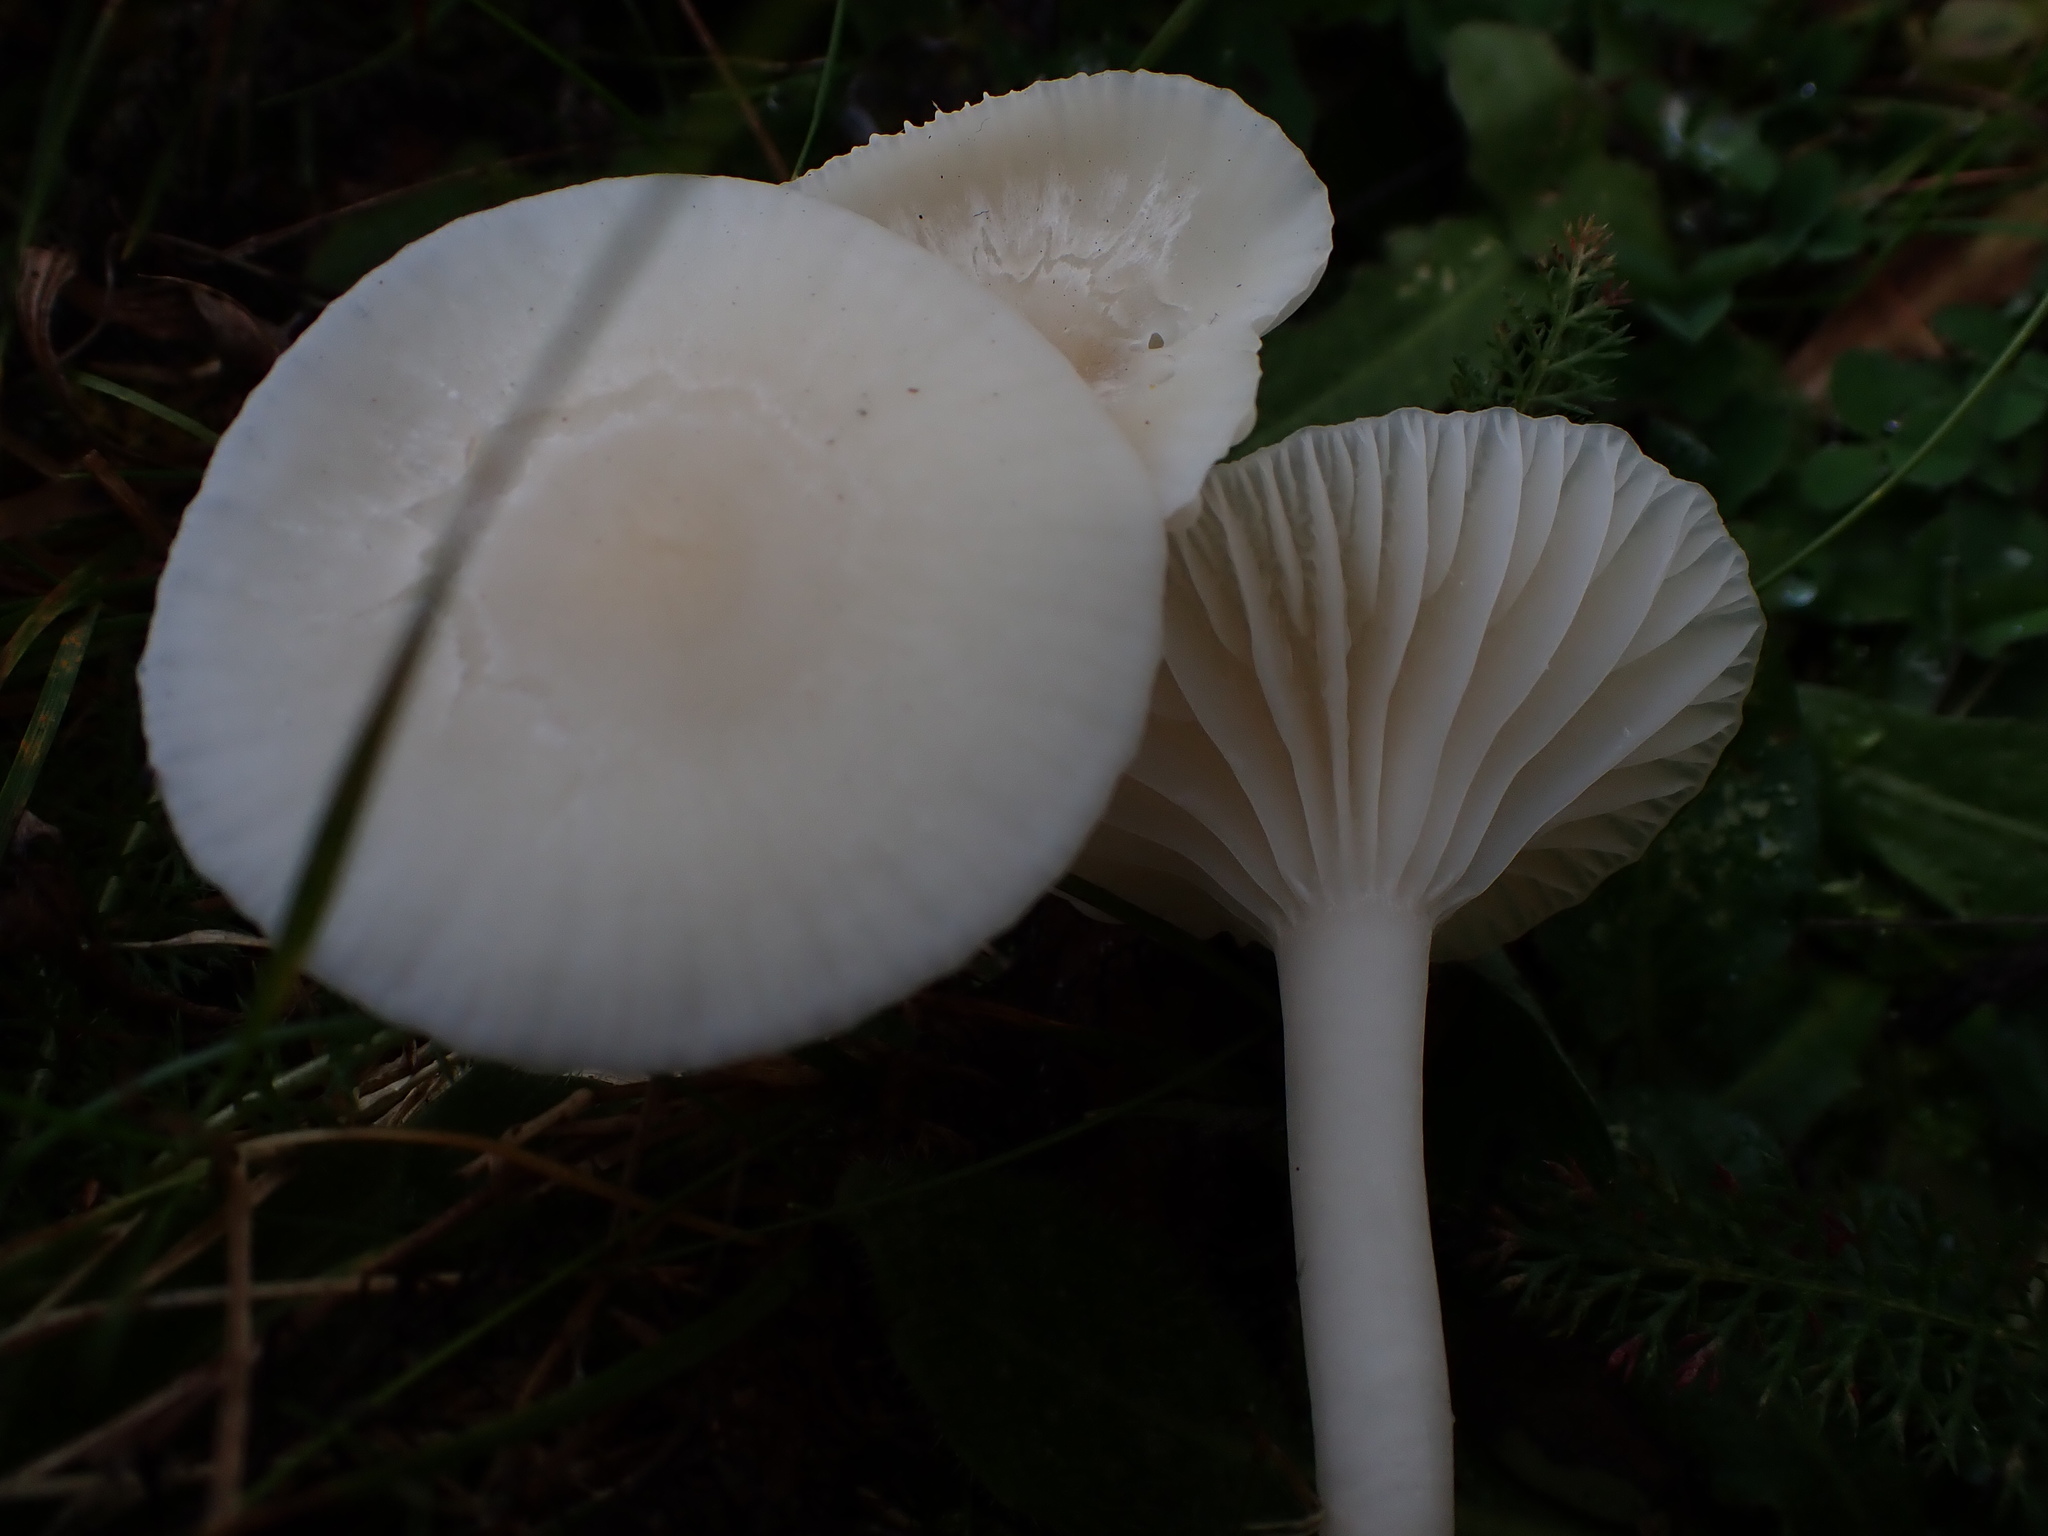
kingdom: Fungi
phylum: Basidiomycota
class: Agaricomycetes
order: Agaricales
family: Hygrophoraceae
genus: Cuphophyllus
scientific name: Cuphophyllus virgineus
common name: Snowy waxcap
